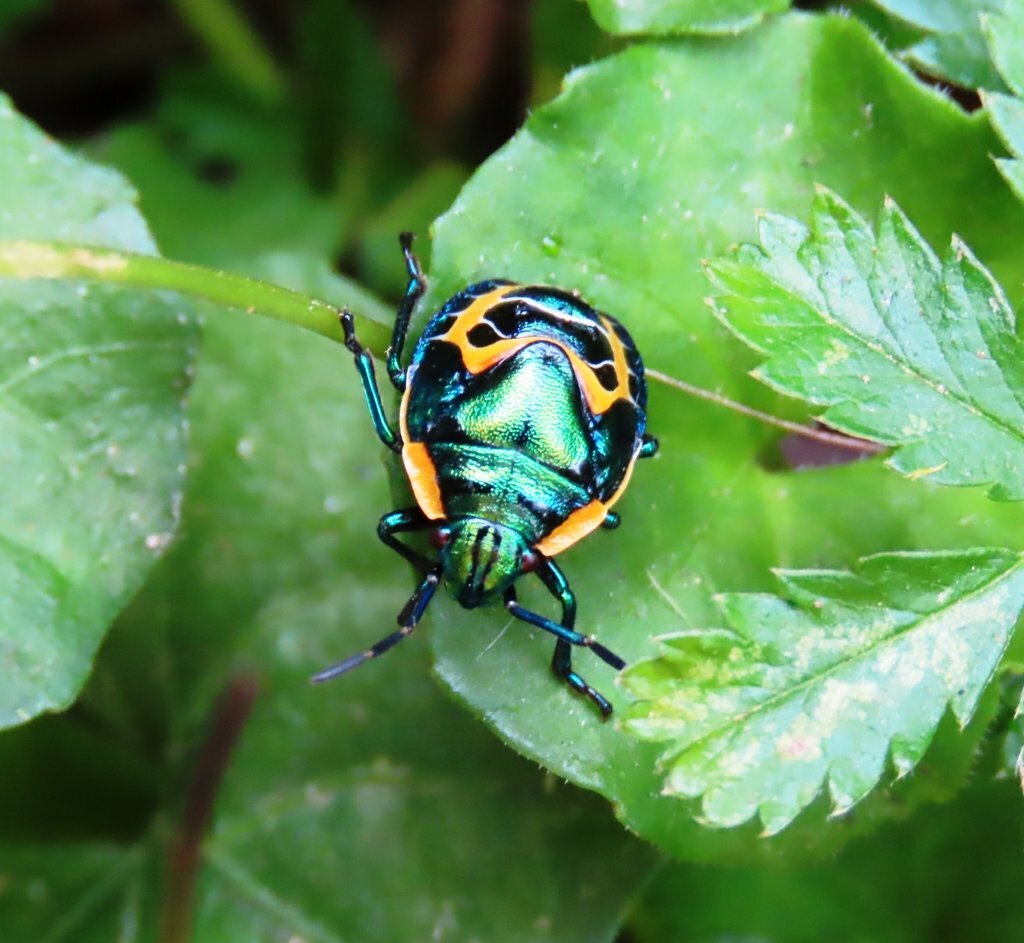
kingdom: Animalia
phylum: Arthropoda
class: Insecta
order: Hemiptera
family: Scutelleridae
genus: Scutiphora
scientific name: Scutiphora pedicellata
